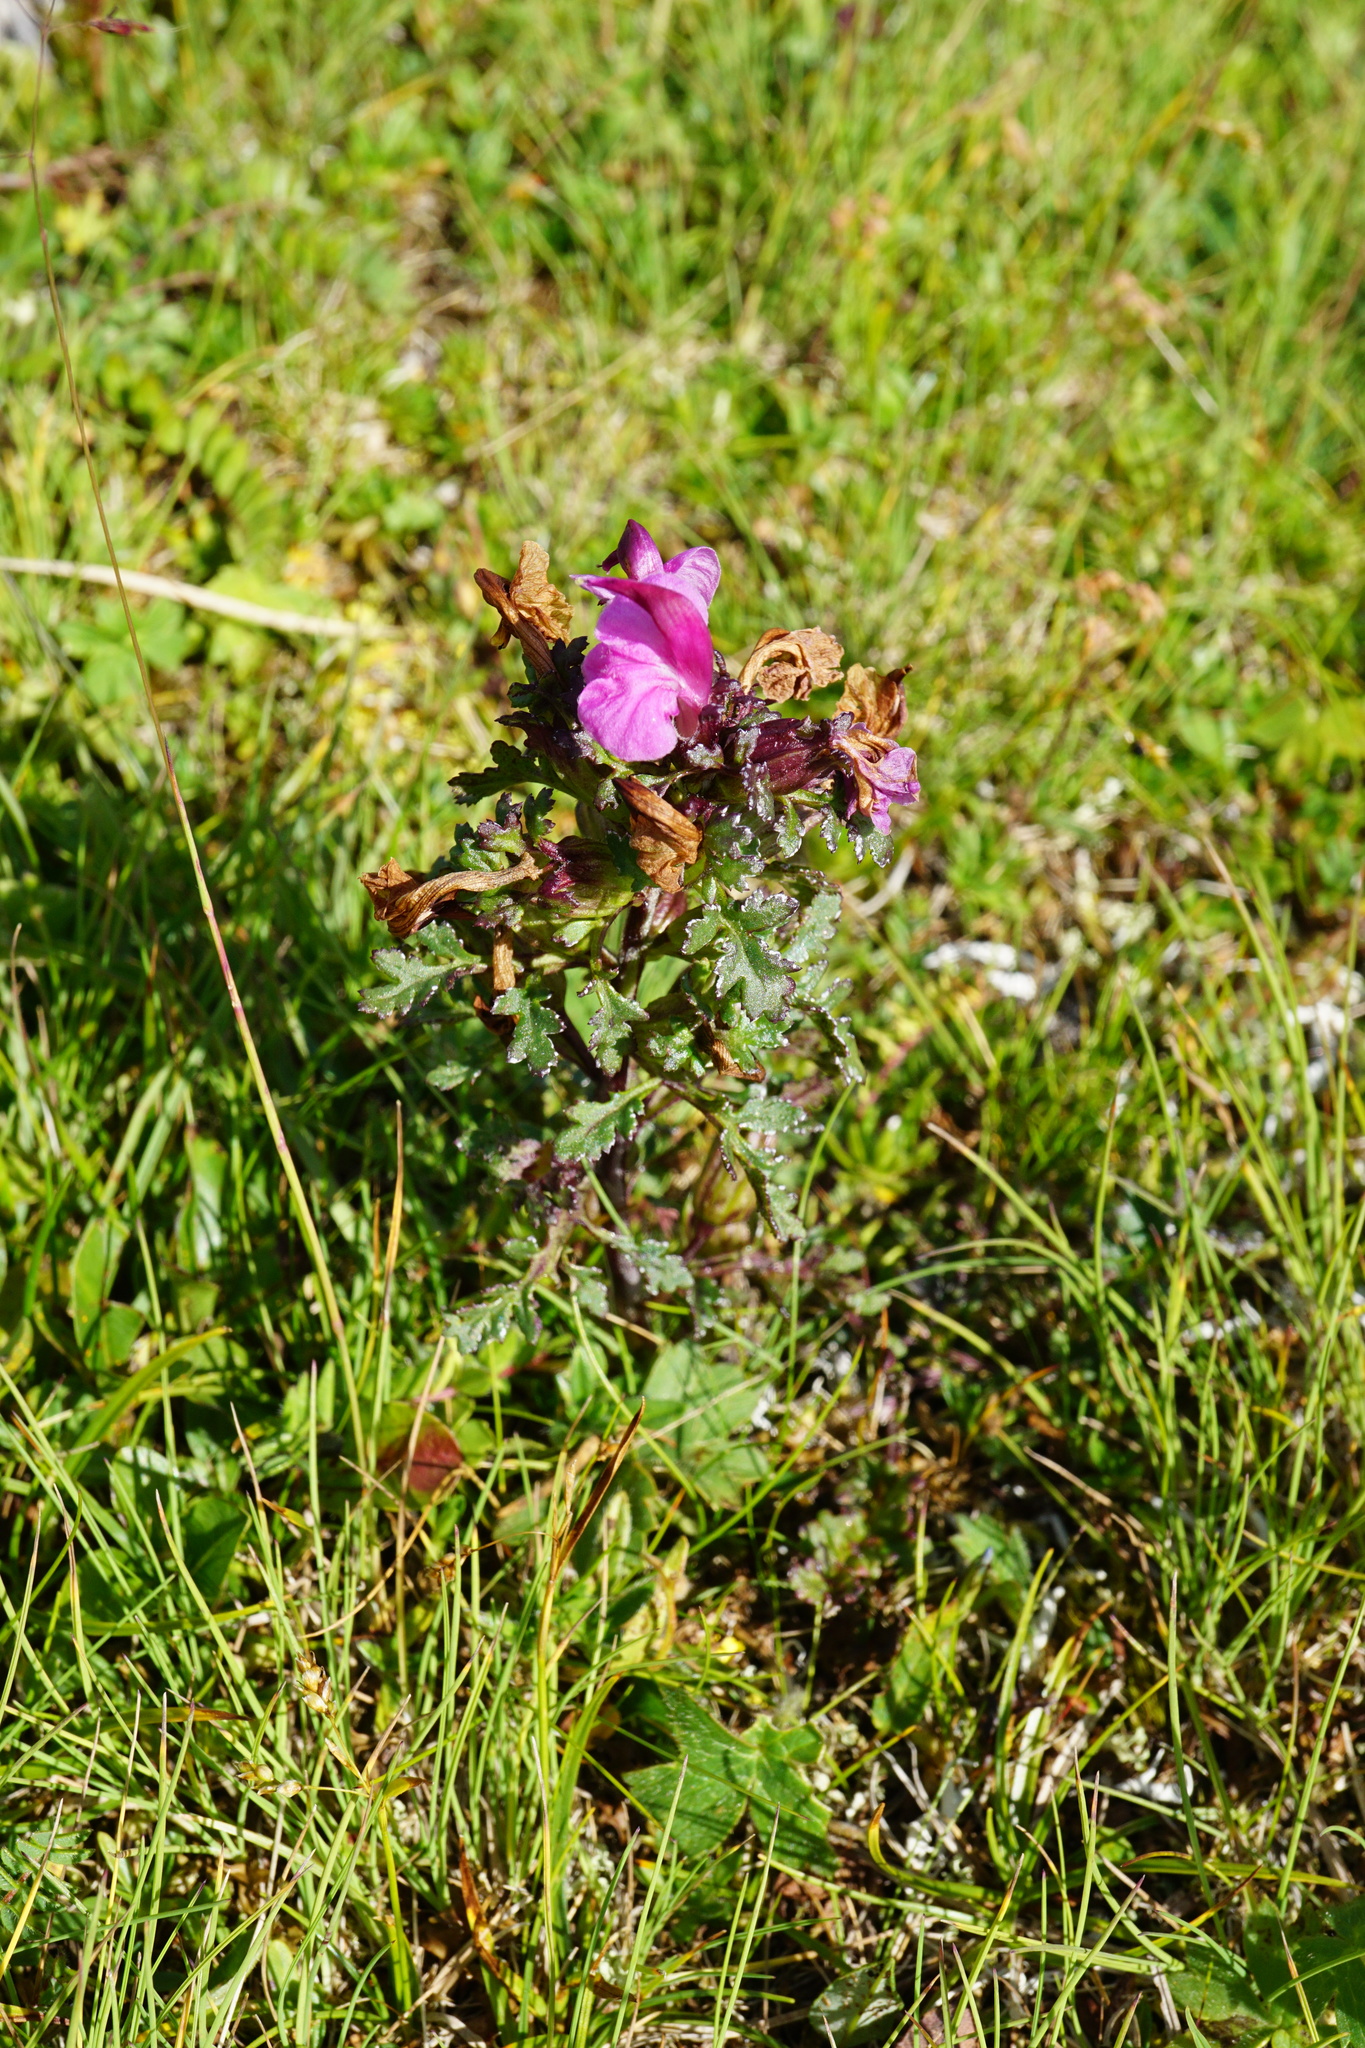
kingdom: Plantae
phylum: Tracheophyta
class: Magnoliopsida
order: Lamiales
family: Orobanchaceae
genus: Pedicularis
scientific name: Pedicularis rostratocapitata
